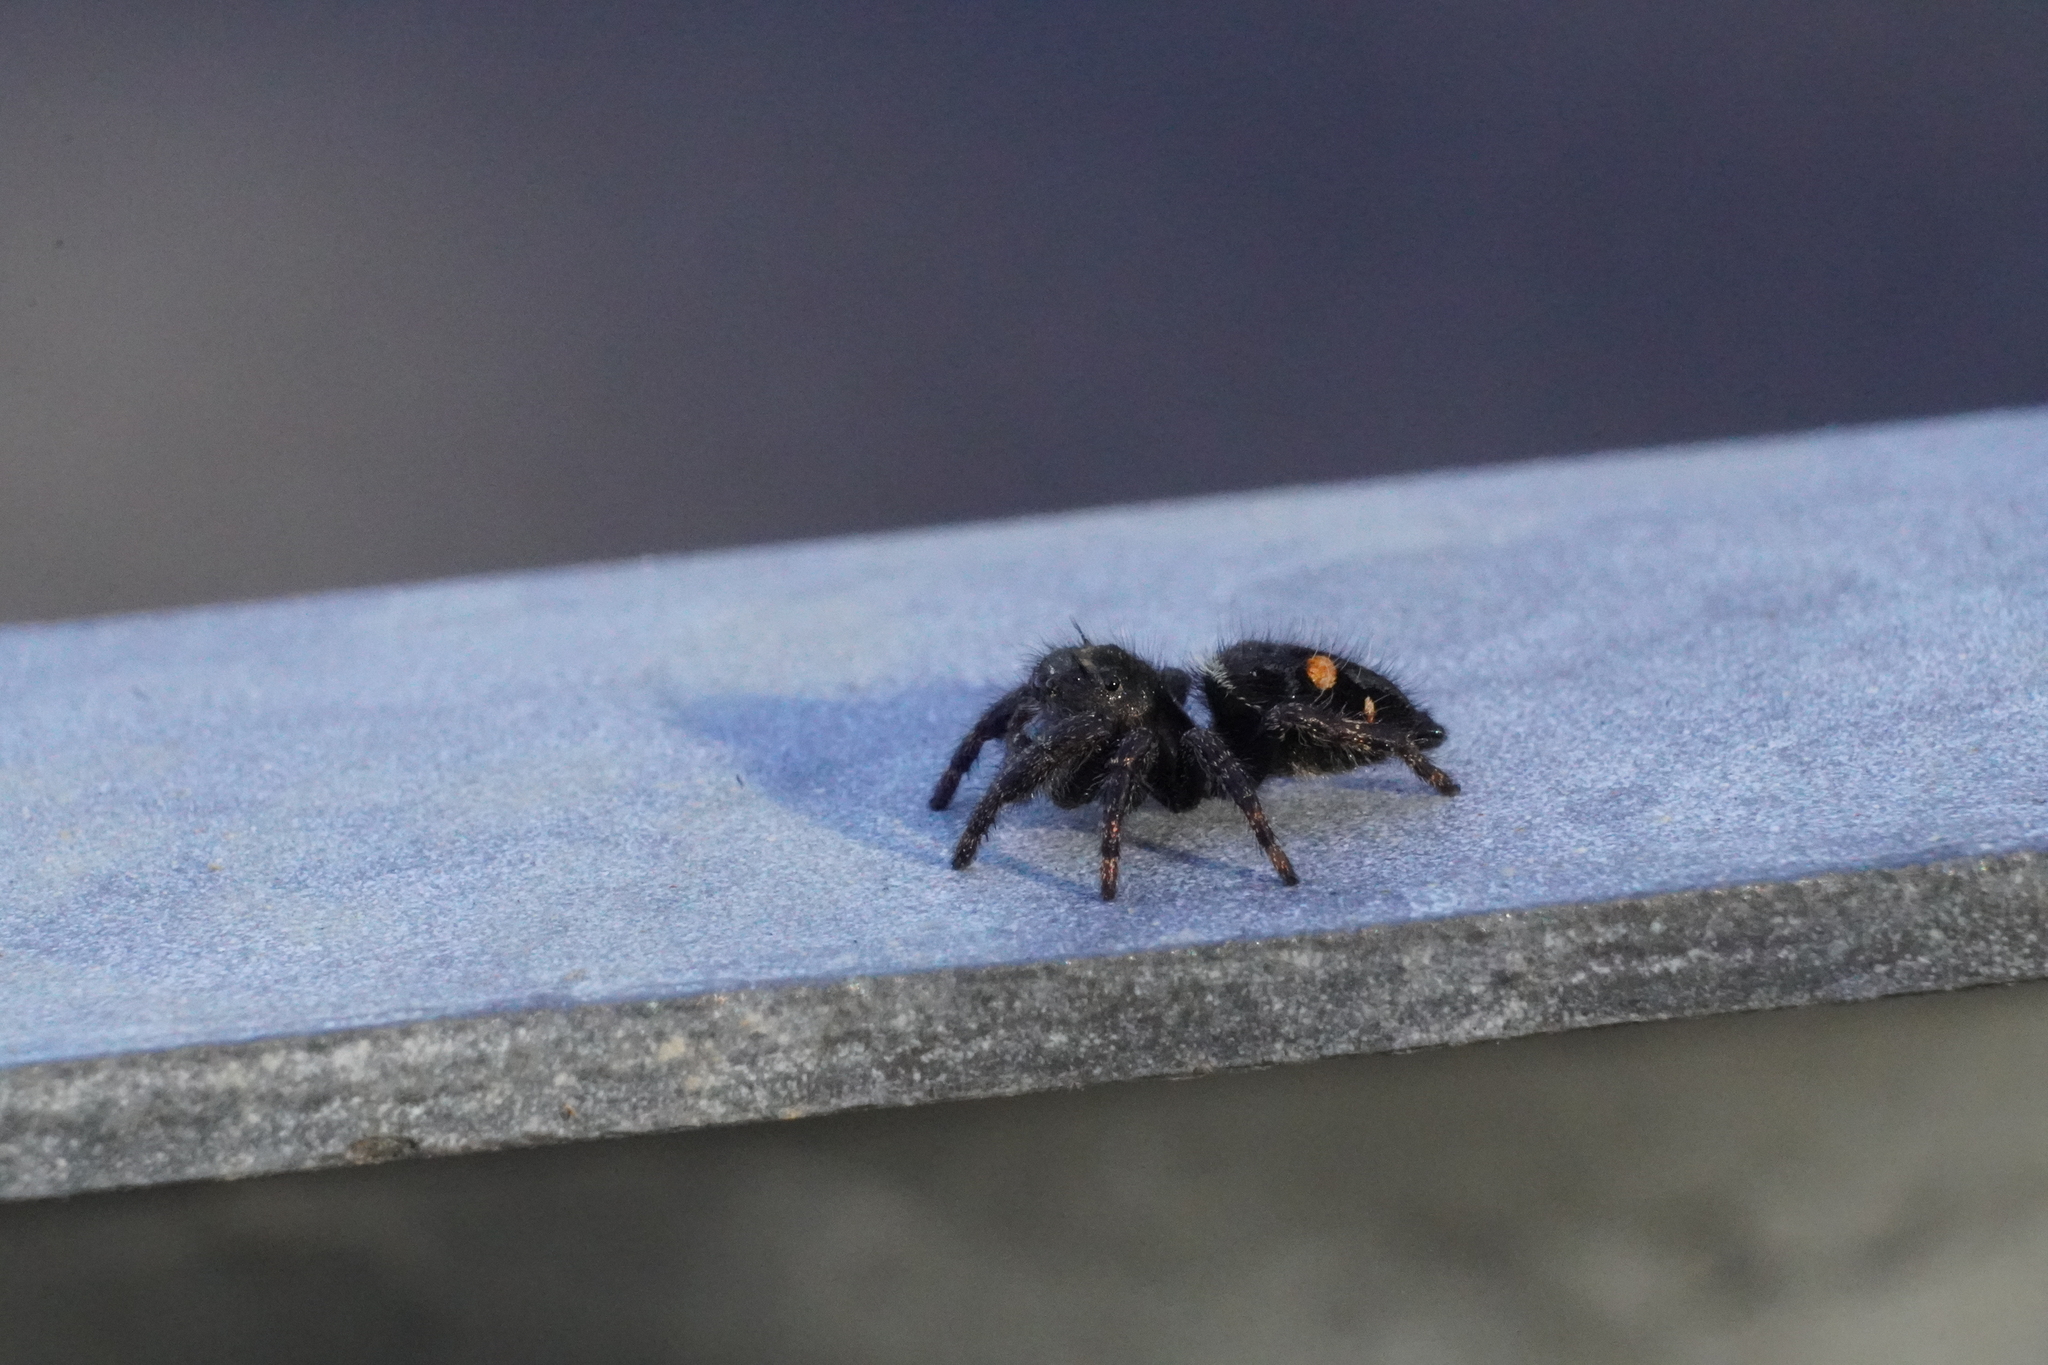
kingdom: Animalia
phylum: Arthropoda
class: Arachnida
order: Araneae
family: Salticidae
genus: Phidippus
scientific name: Phidippus audax
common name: Bold jumper
